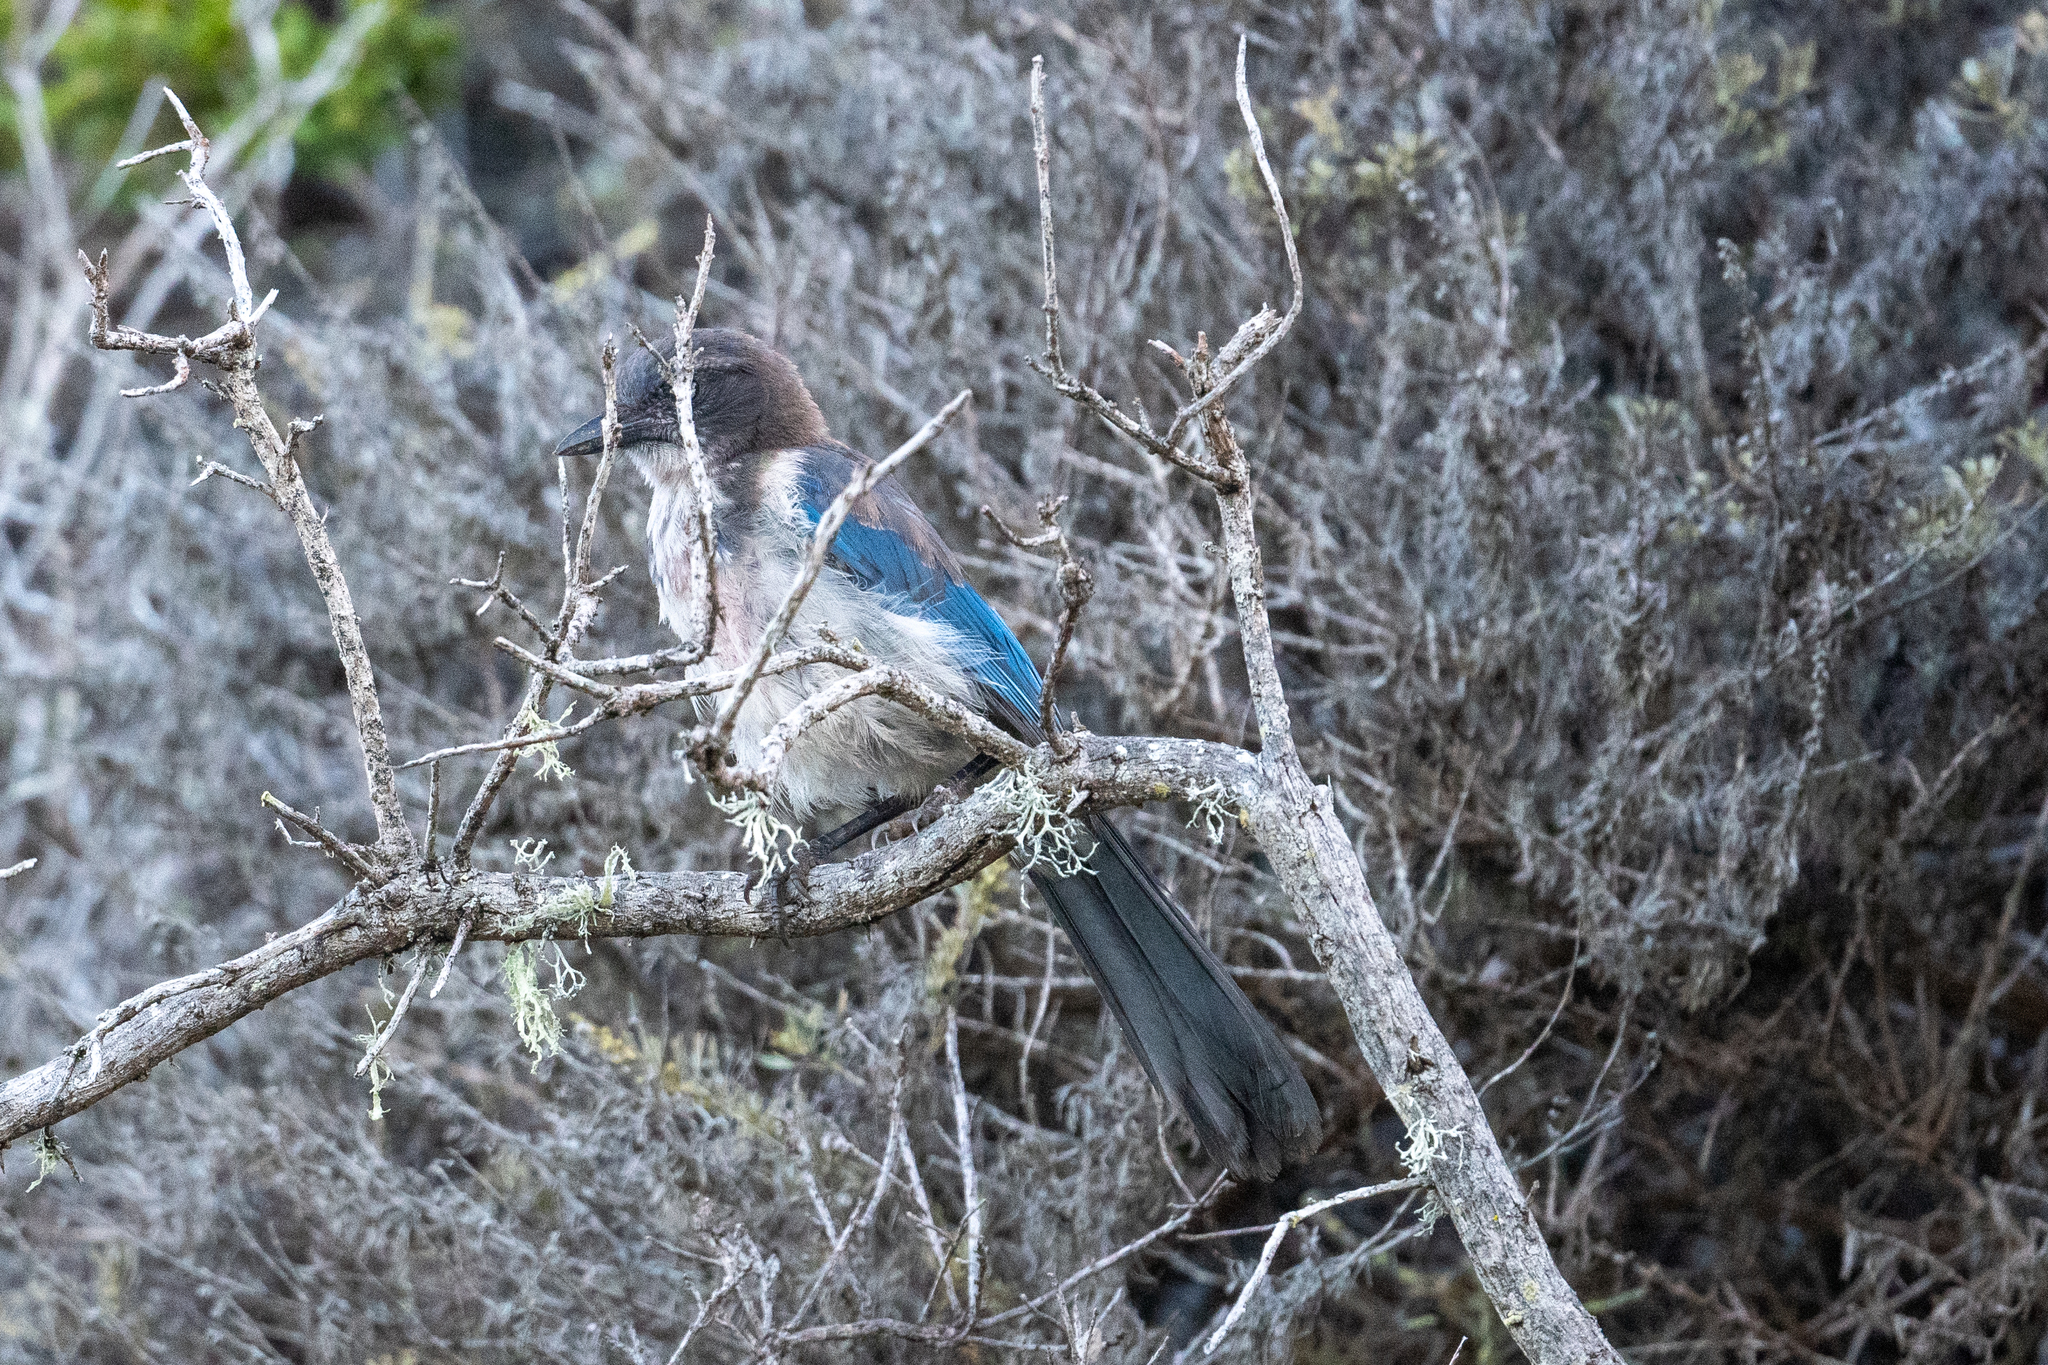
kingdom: Animalia
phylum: Chordata
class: Aves
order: Passeriformes
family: Corvidae
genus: Aphelocoma
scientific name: Aphelocoma californica
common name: California scrub-jay
